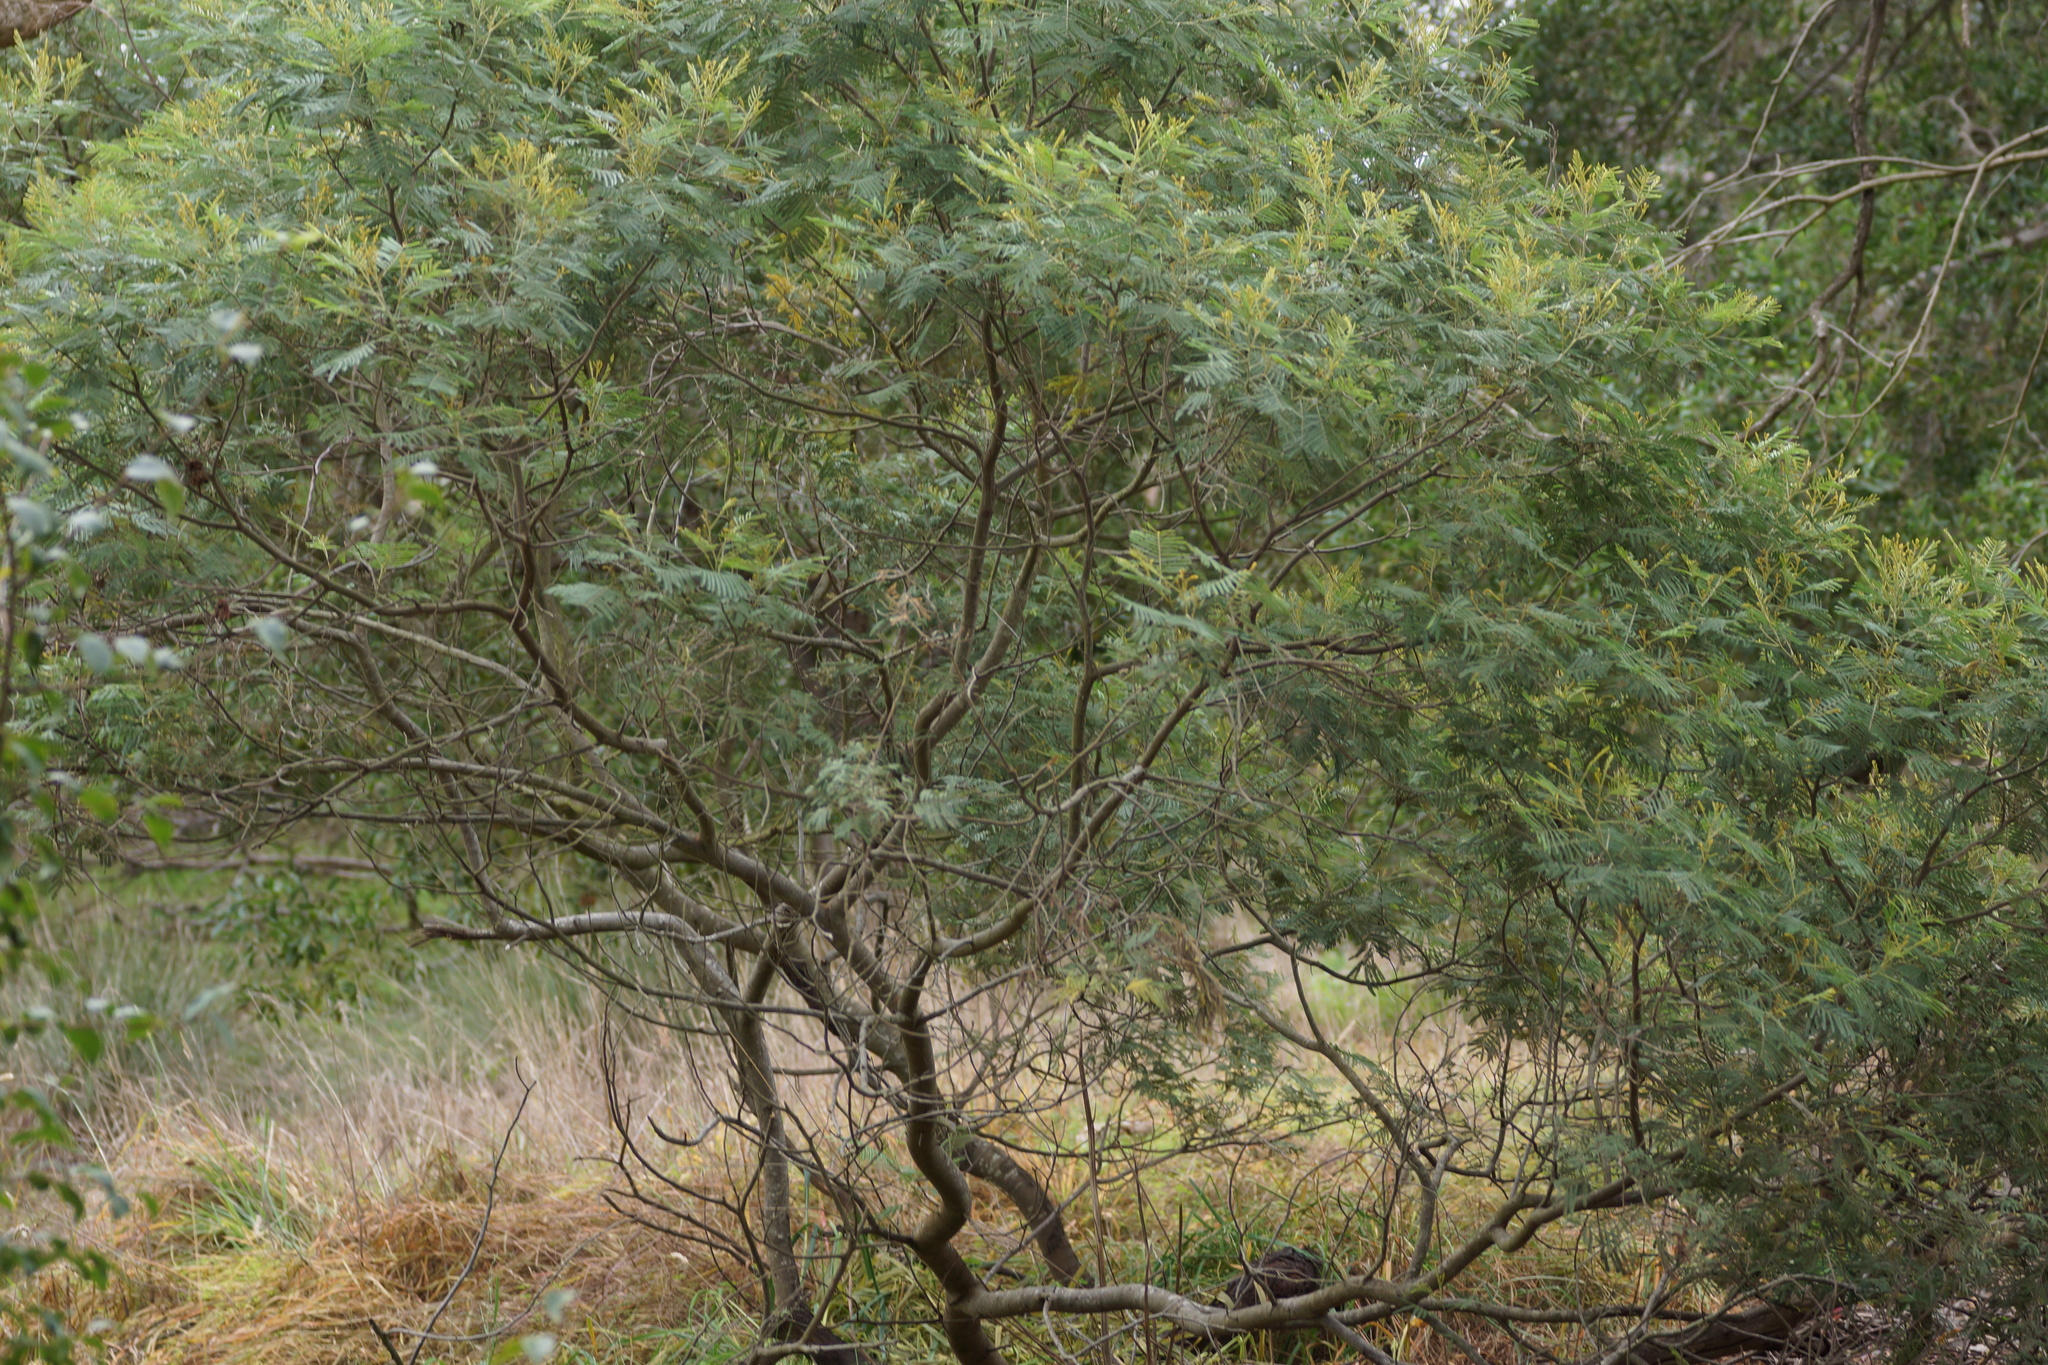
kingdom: Plantae
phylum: Tracheophyta
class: Magnoliopsida
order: Fabales
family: Fabaceae
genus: Acacia
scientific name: Acacia mearnsii
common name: Black wattle
